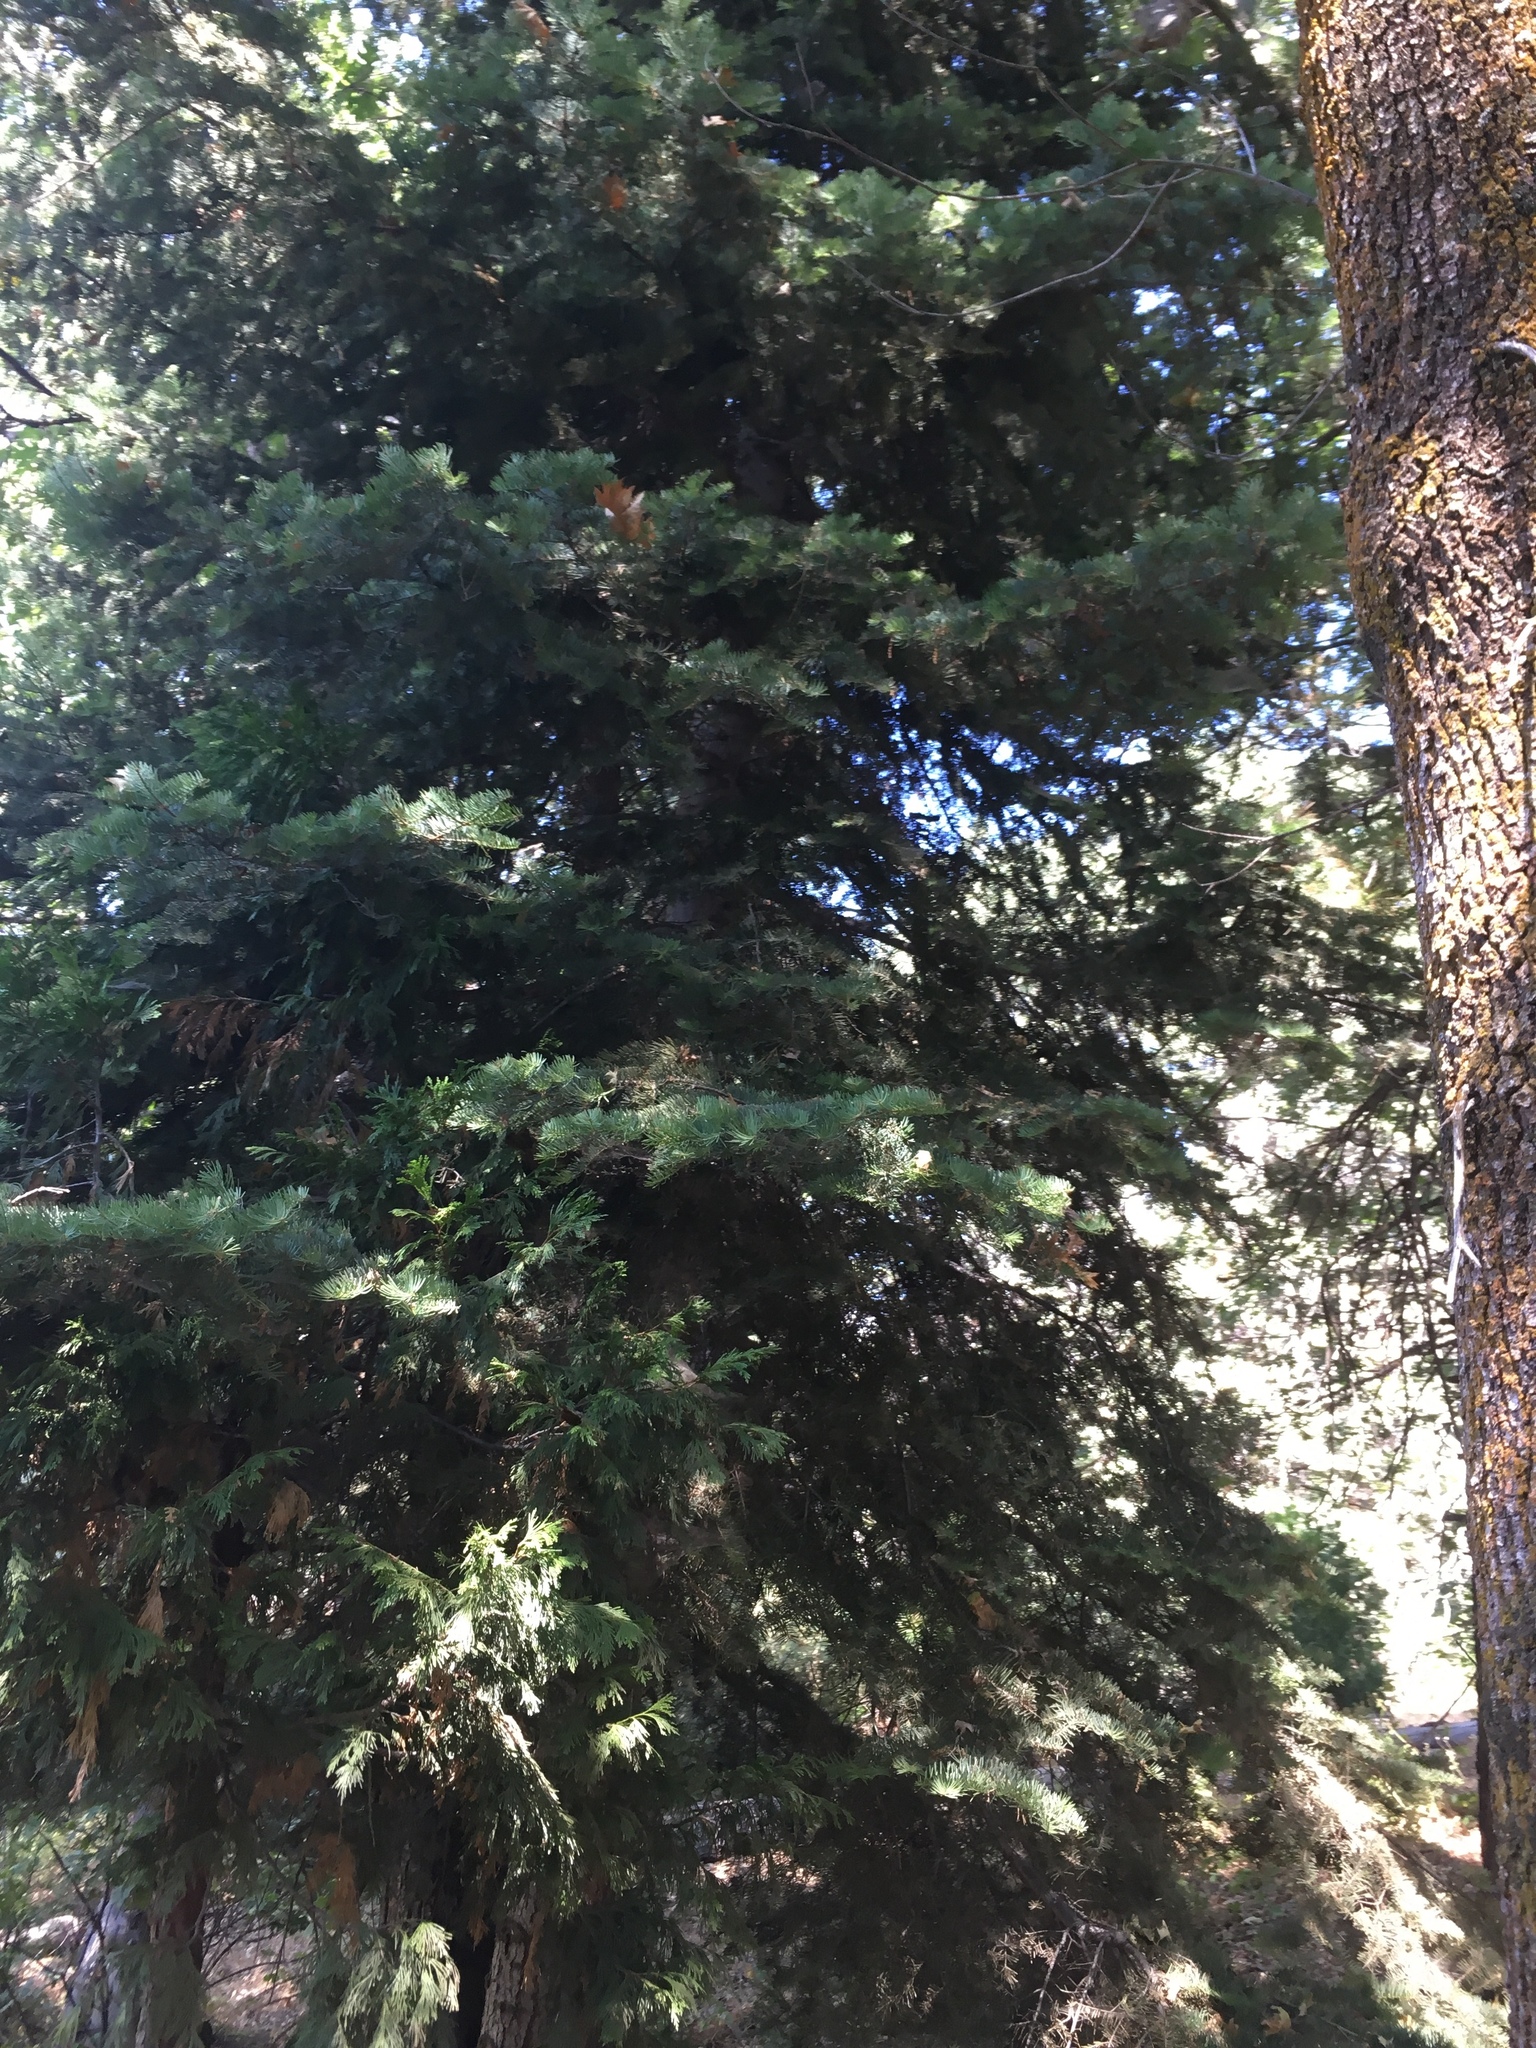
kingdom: Plantae
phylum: Tracheophyta
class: Pinopsida
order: Pinales
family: Pinaceae
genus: Abies
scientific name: Abies concolor
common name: Colorado fir
